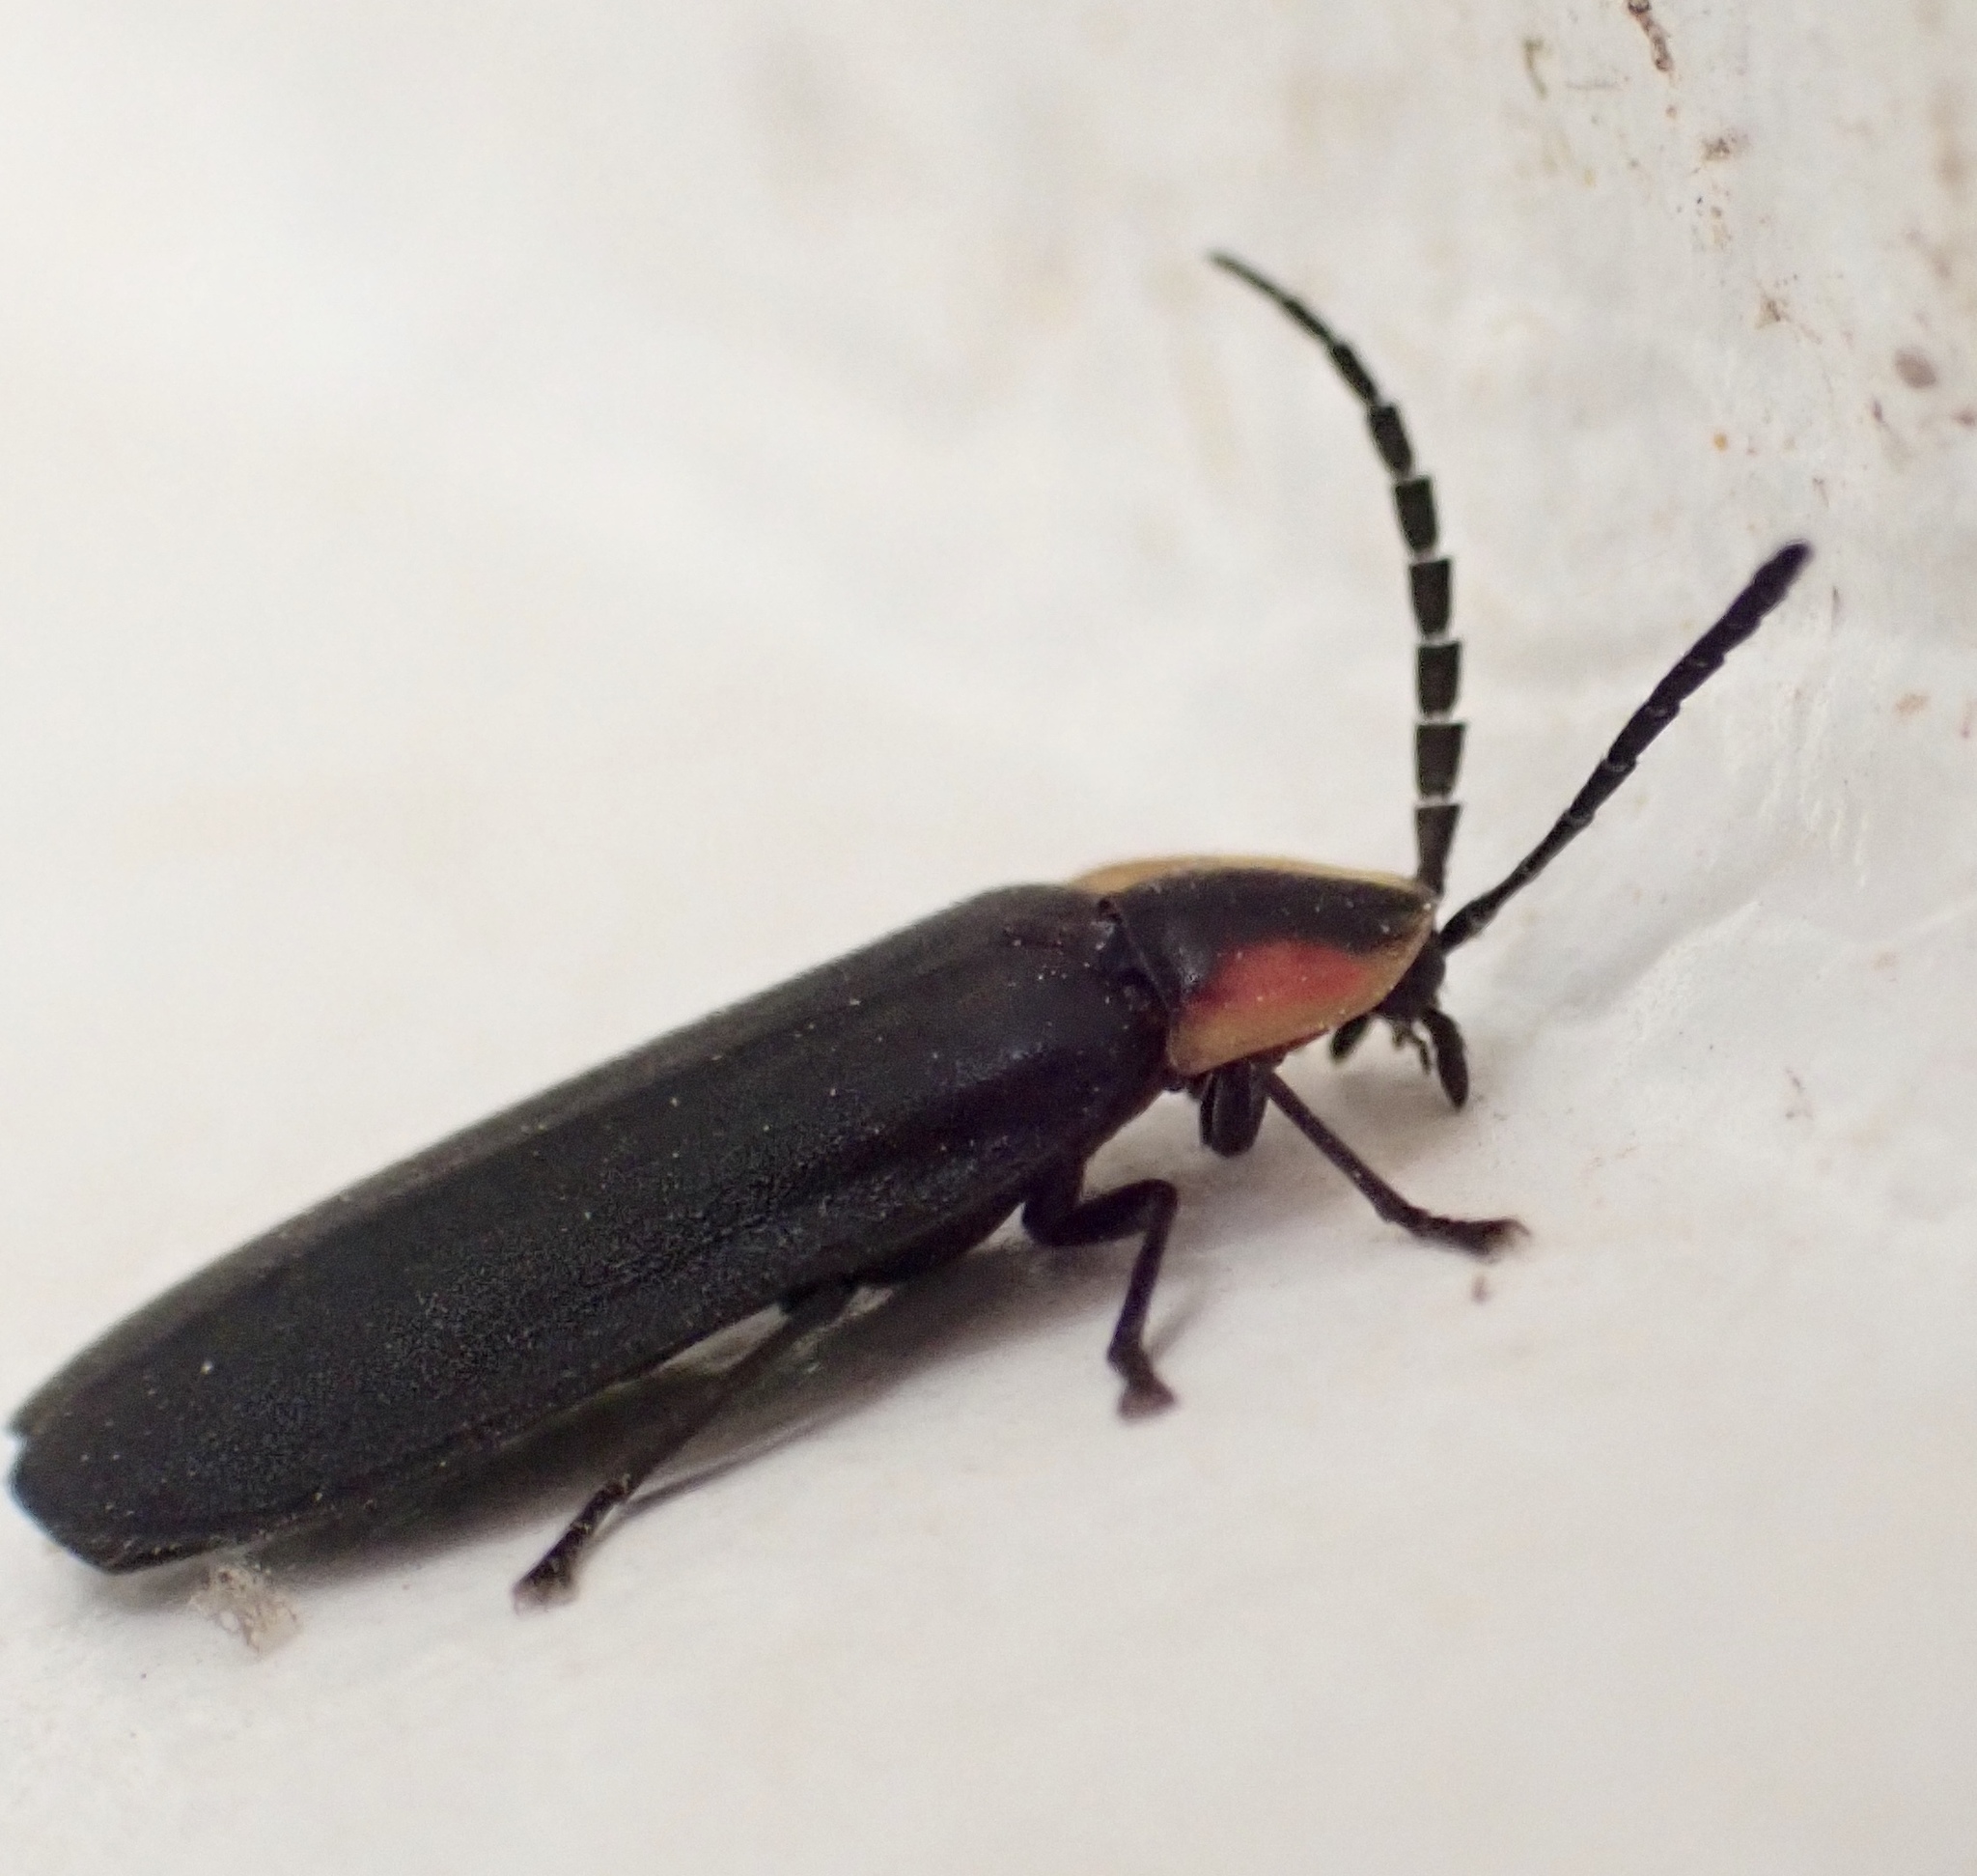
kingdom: Animalia
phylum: Arthropoda
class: Insecta
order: Coleoptera
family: Lampyridae
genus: Lucidota
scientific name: Lucidota atra
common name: Black firefly
